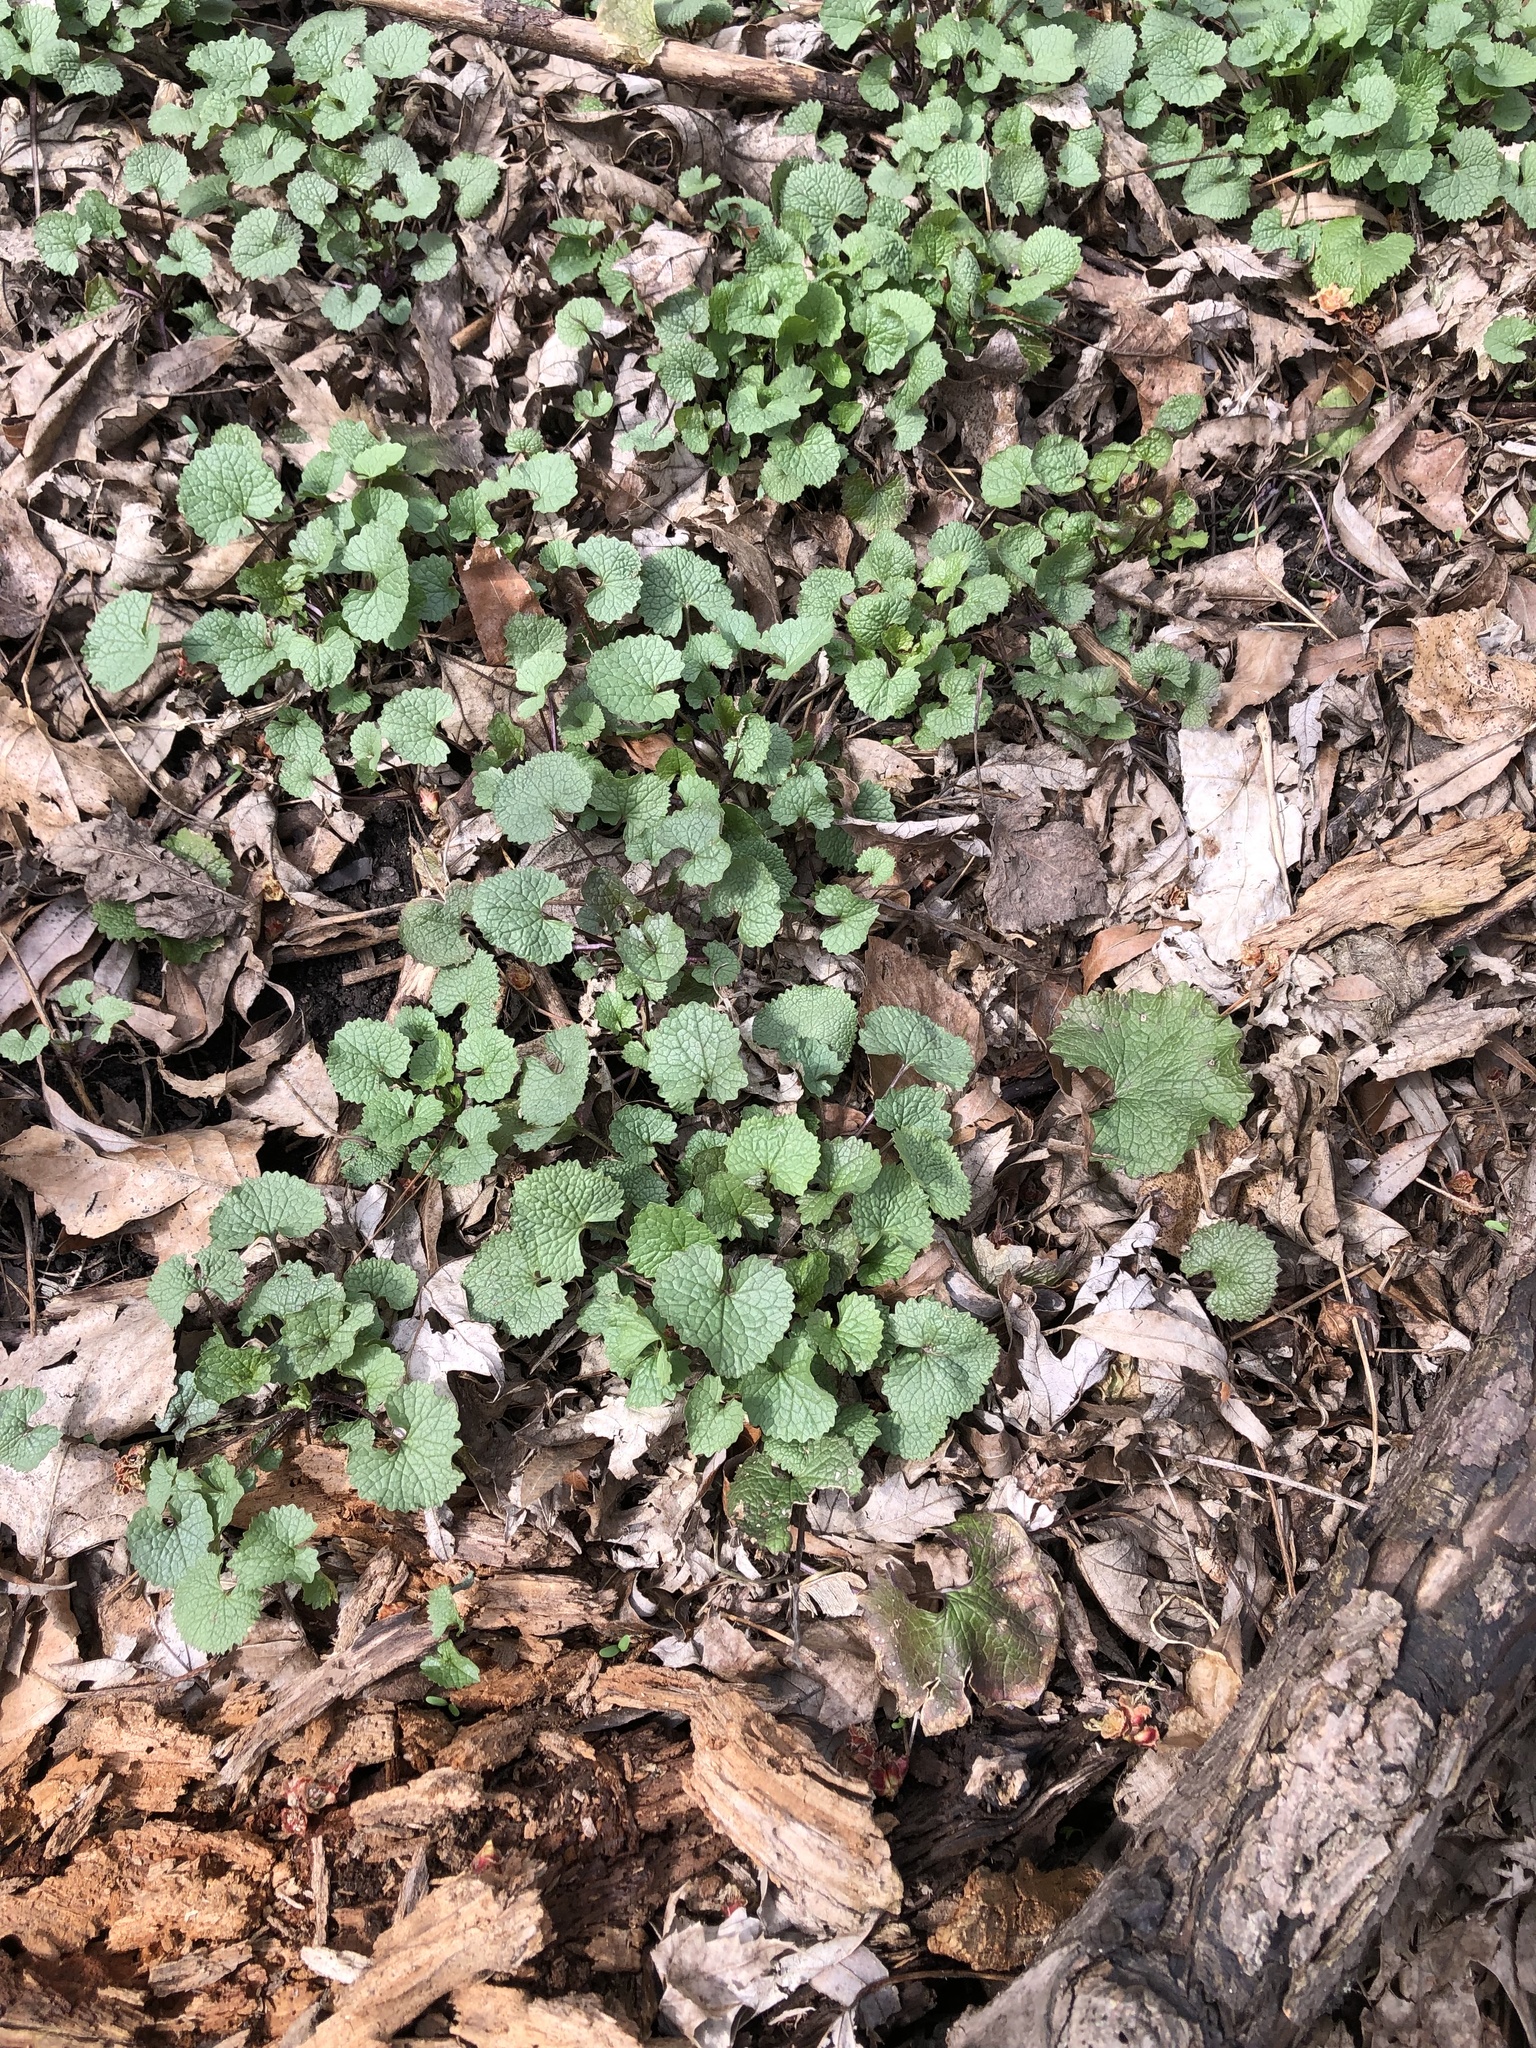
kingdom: Plantae
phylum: Tracheophyta
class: Magnoliopsida
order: Brassicales
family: Brassicaceae
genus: Alliaria
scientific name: Alliaria petiolata
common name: Garlic mustard
